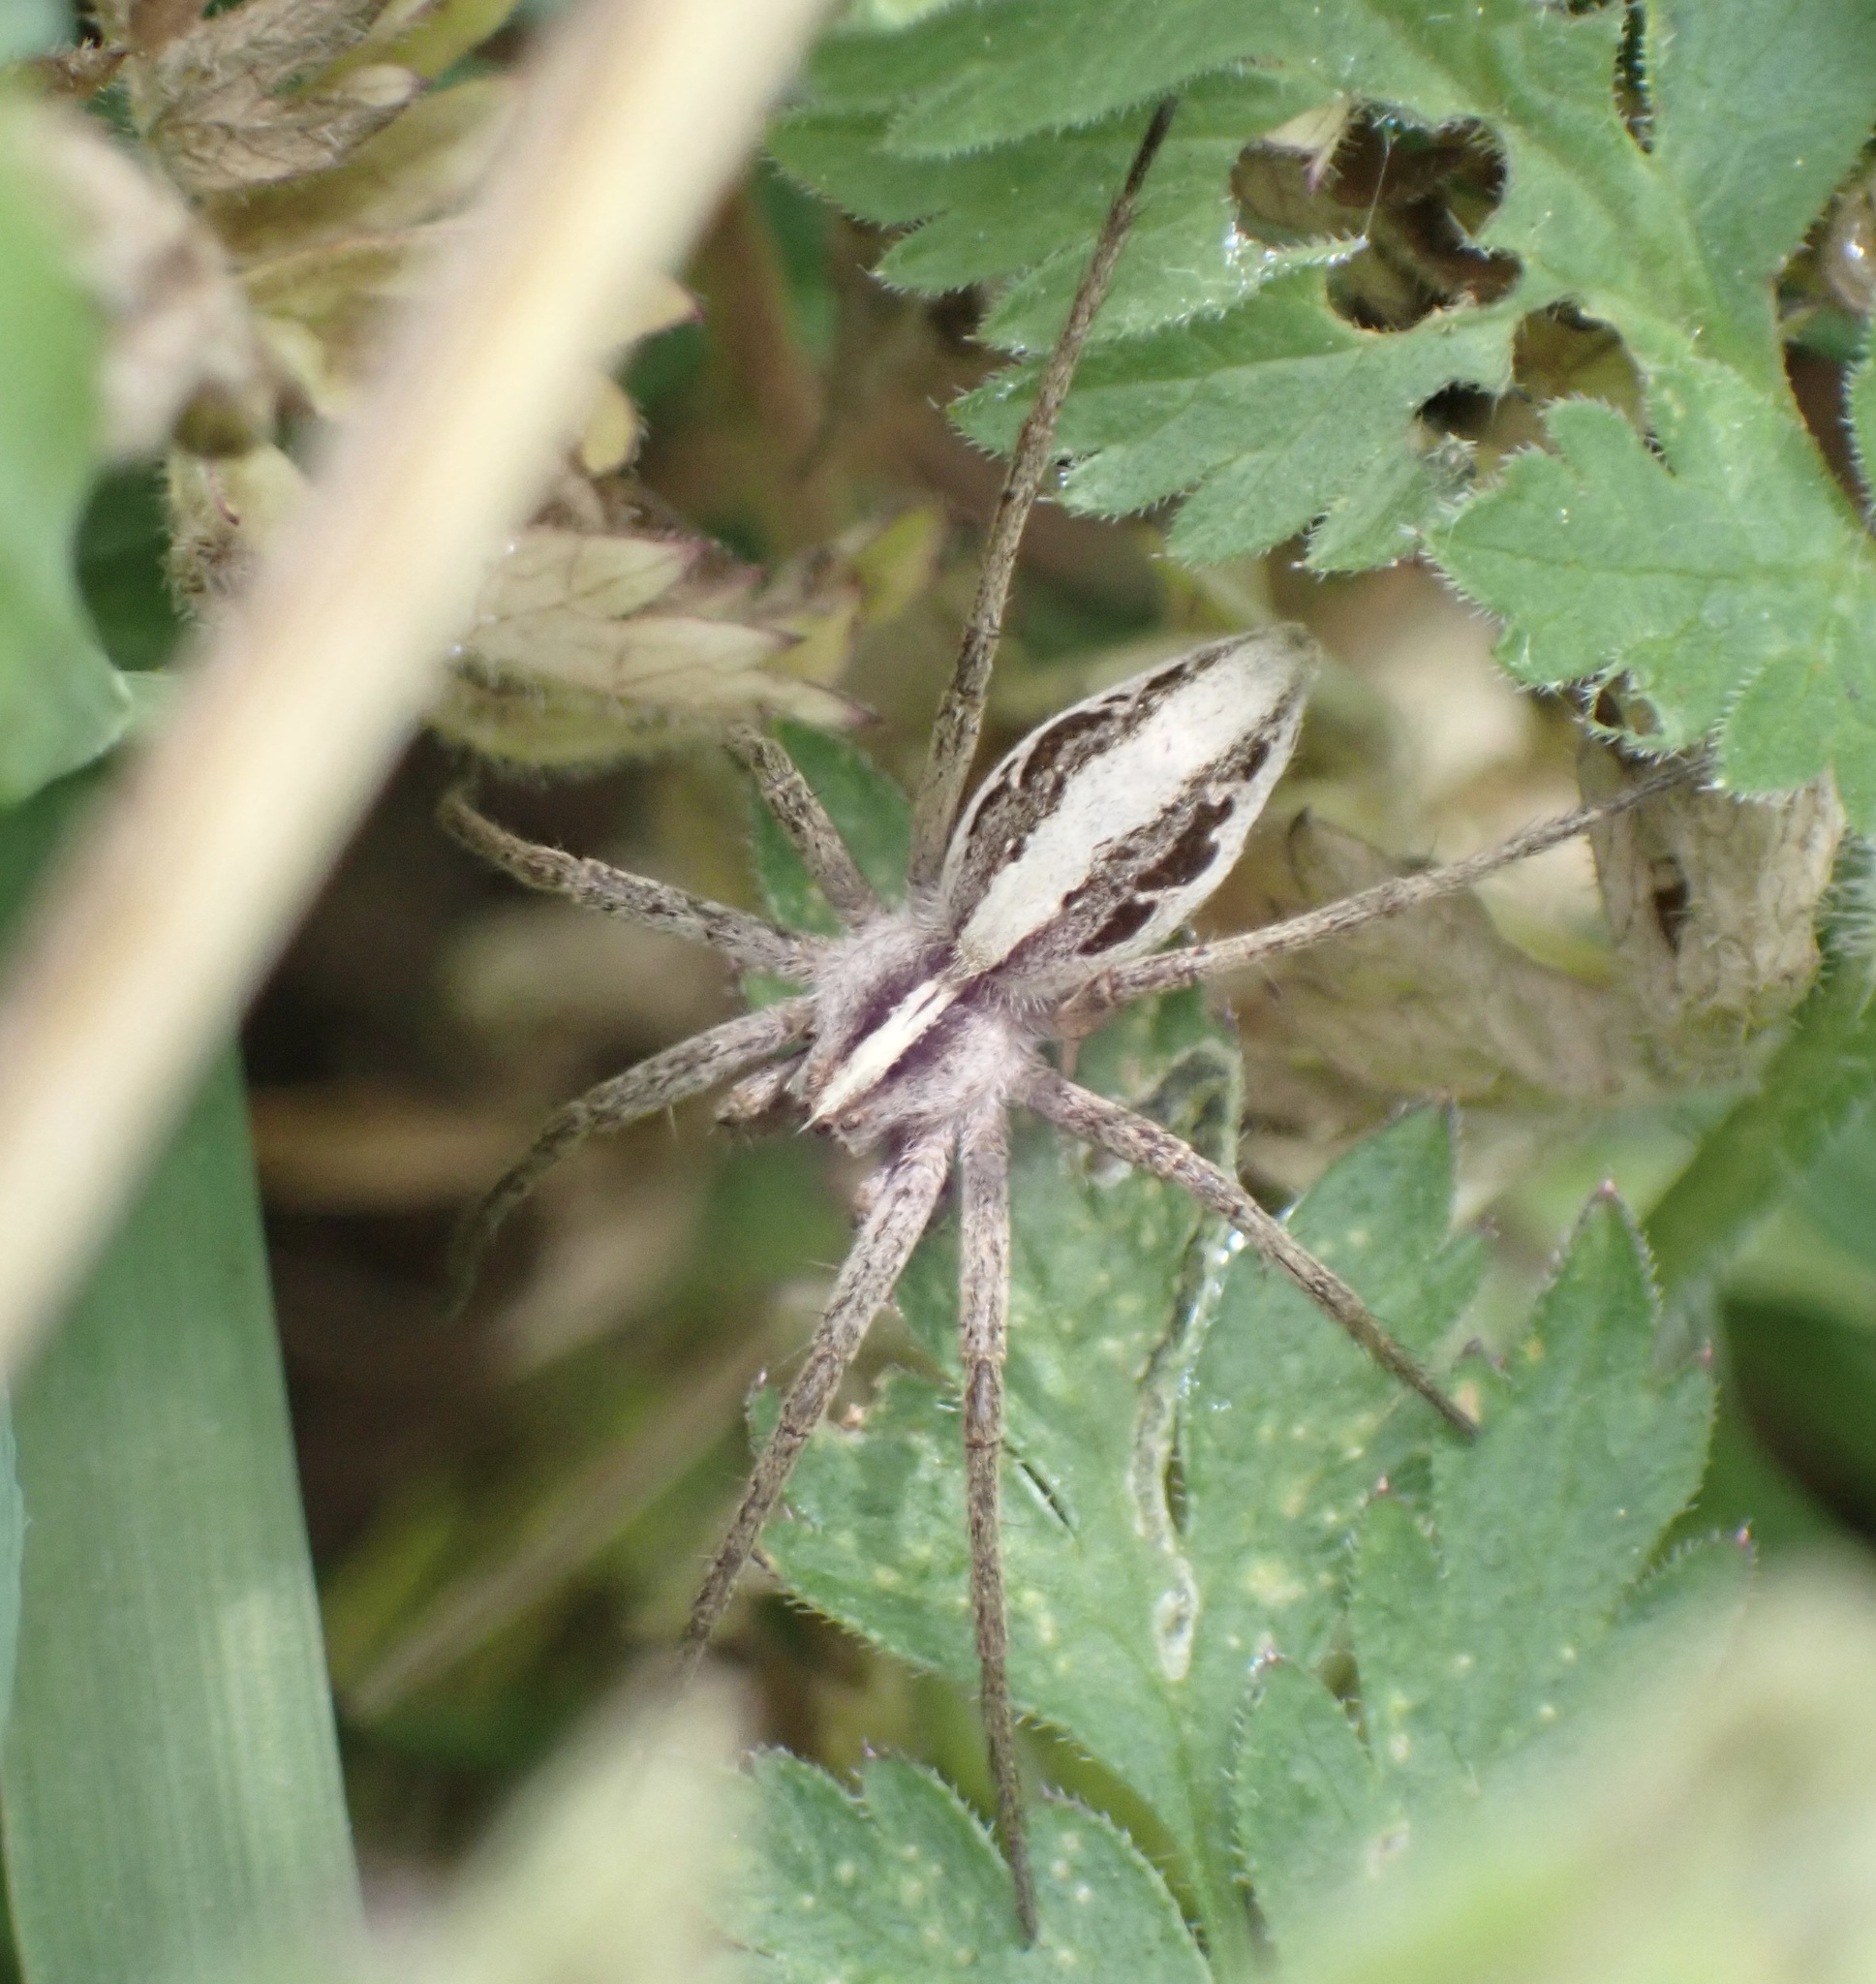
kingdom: Animalia
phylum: Arthropoda
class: Arachnida
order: Araneae
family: Pisauridae
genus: Pisaura
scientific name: Pisaura mirabilis
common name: Tent spider
